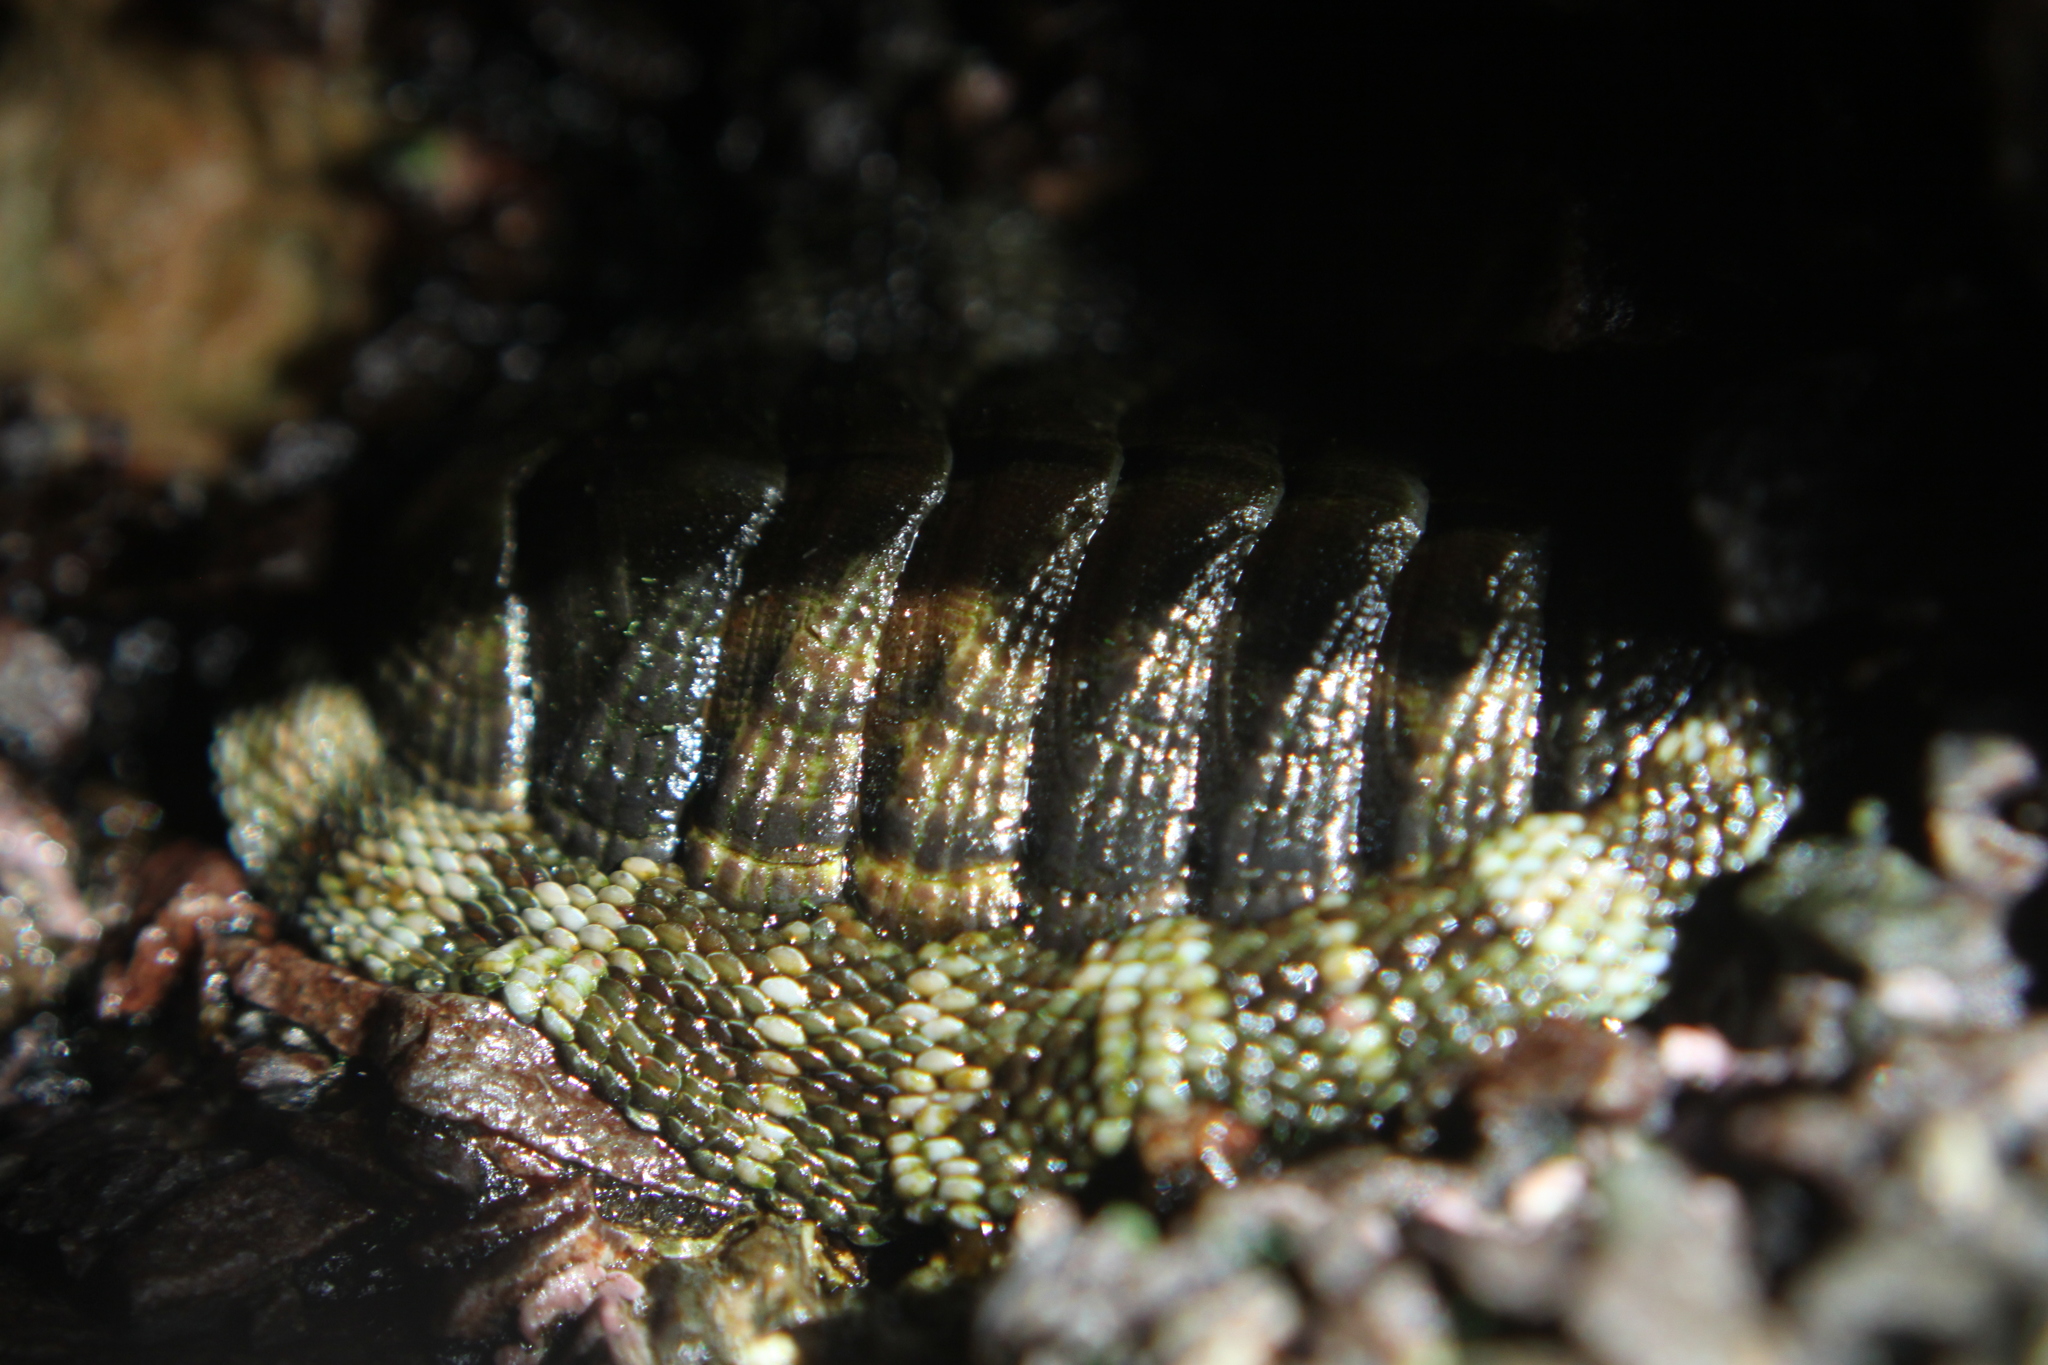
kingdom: Animalia
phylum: Mollusca
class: Polyplacophora
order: Chitonida
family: Chitonidae
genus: Sypharochiton
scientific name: Sypharochiton pelliserpentis
